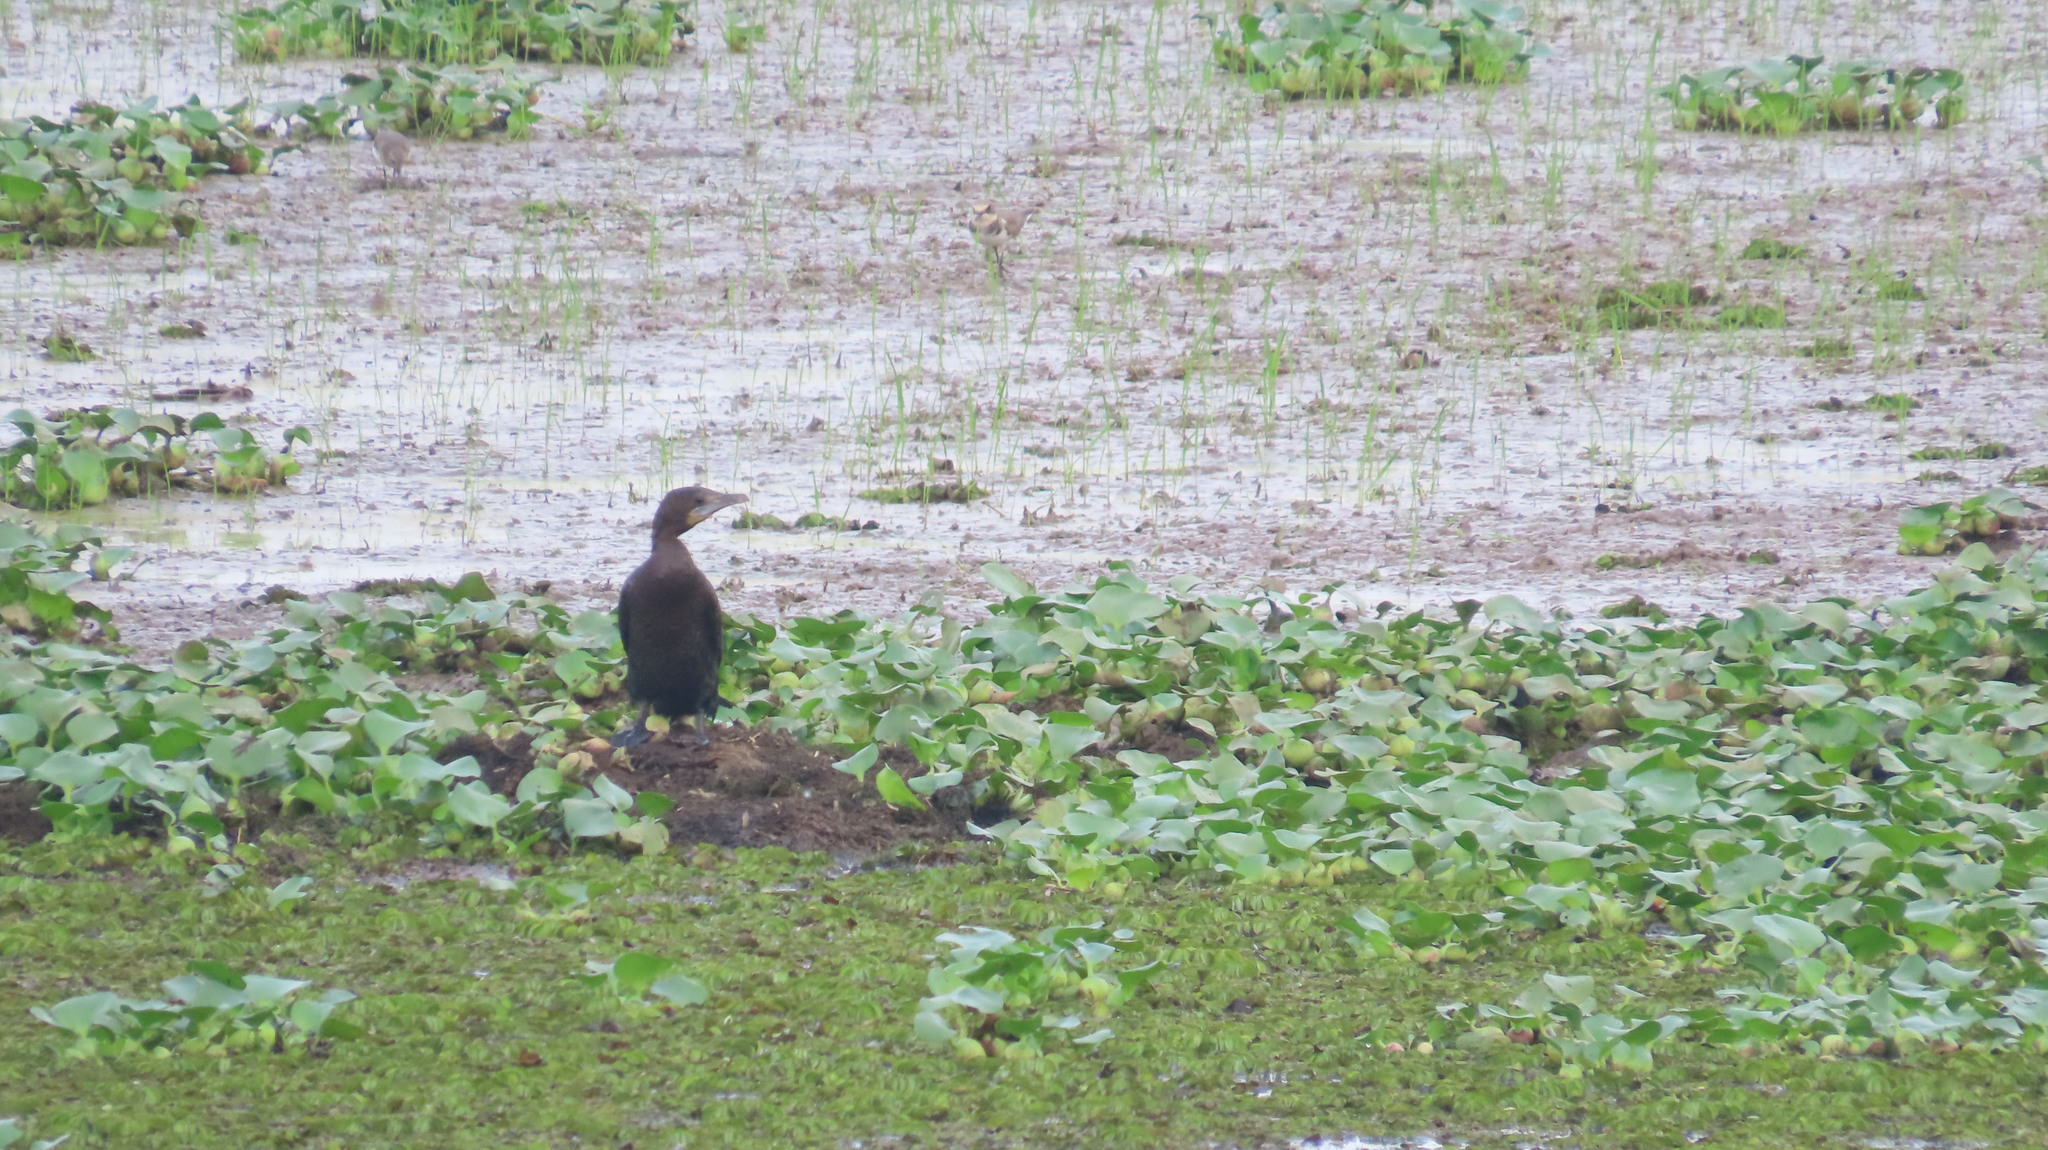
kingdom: Animalia
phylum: Chordata
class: Aves
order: Suliformes
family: Phalacrocoracidae
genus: Microcarbo
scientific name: Microcarbo niger
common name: Little cormorant
